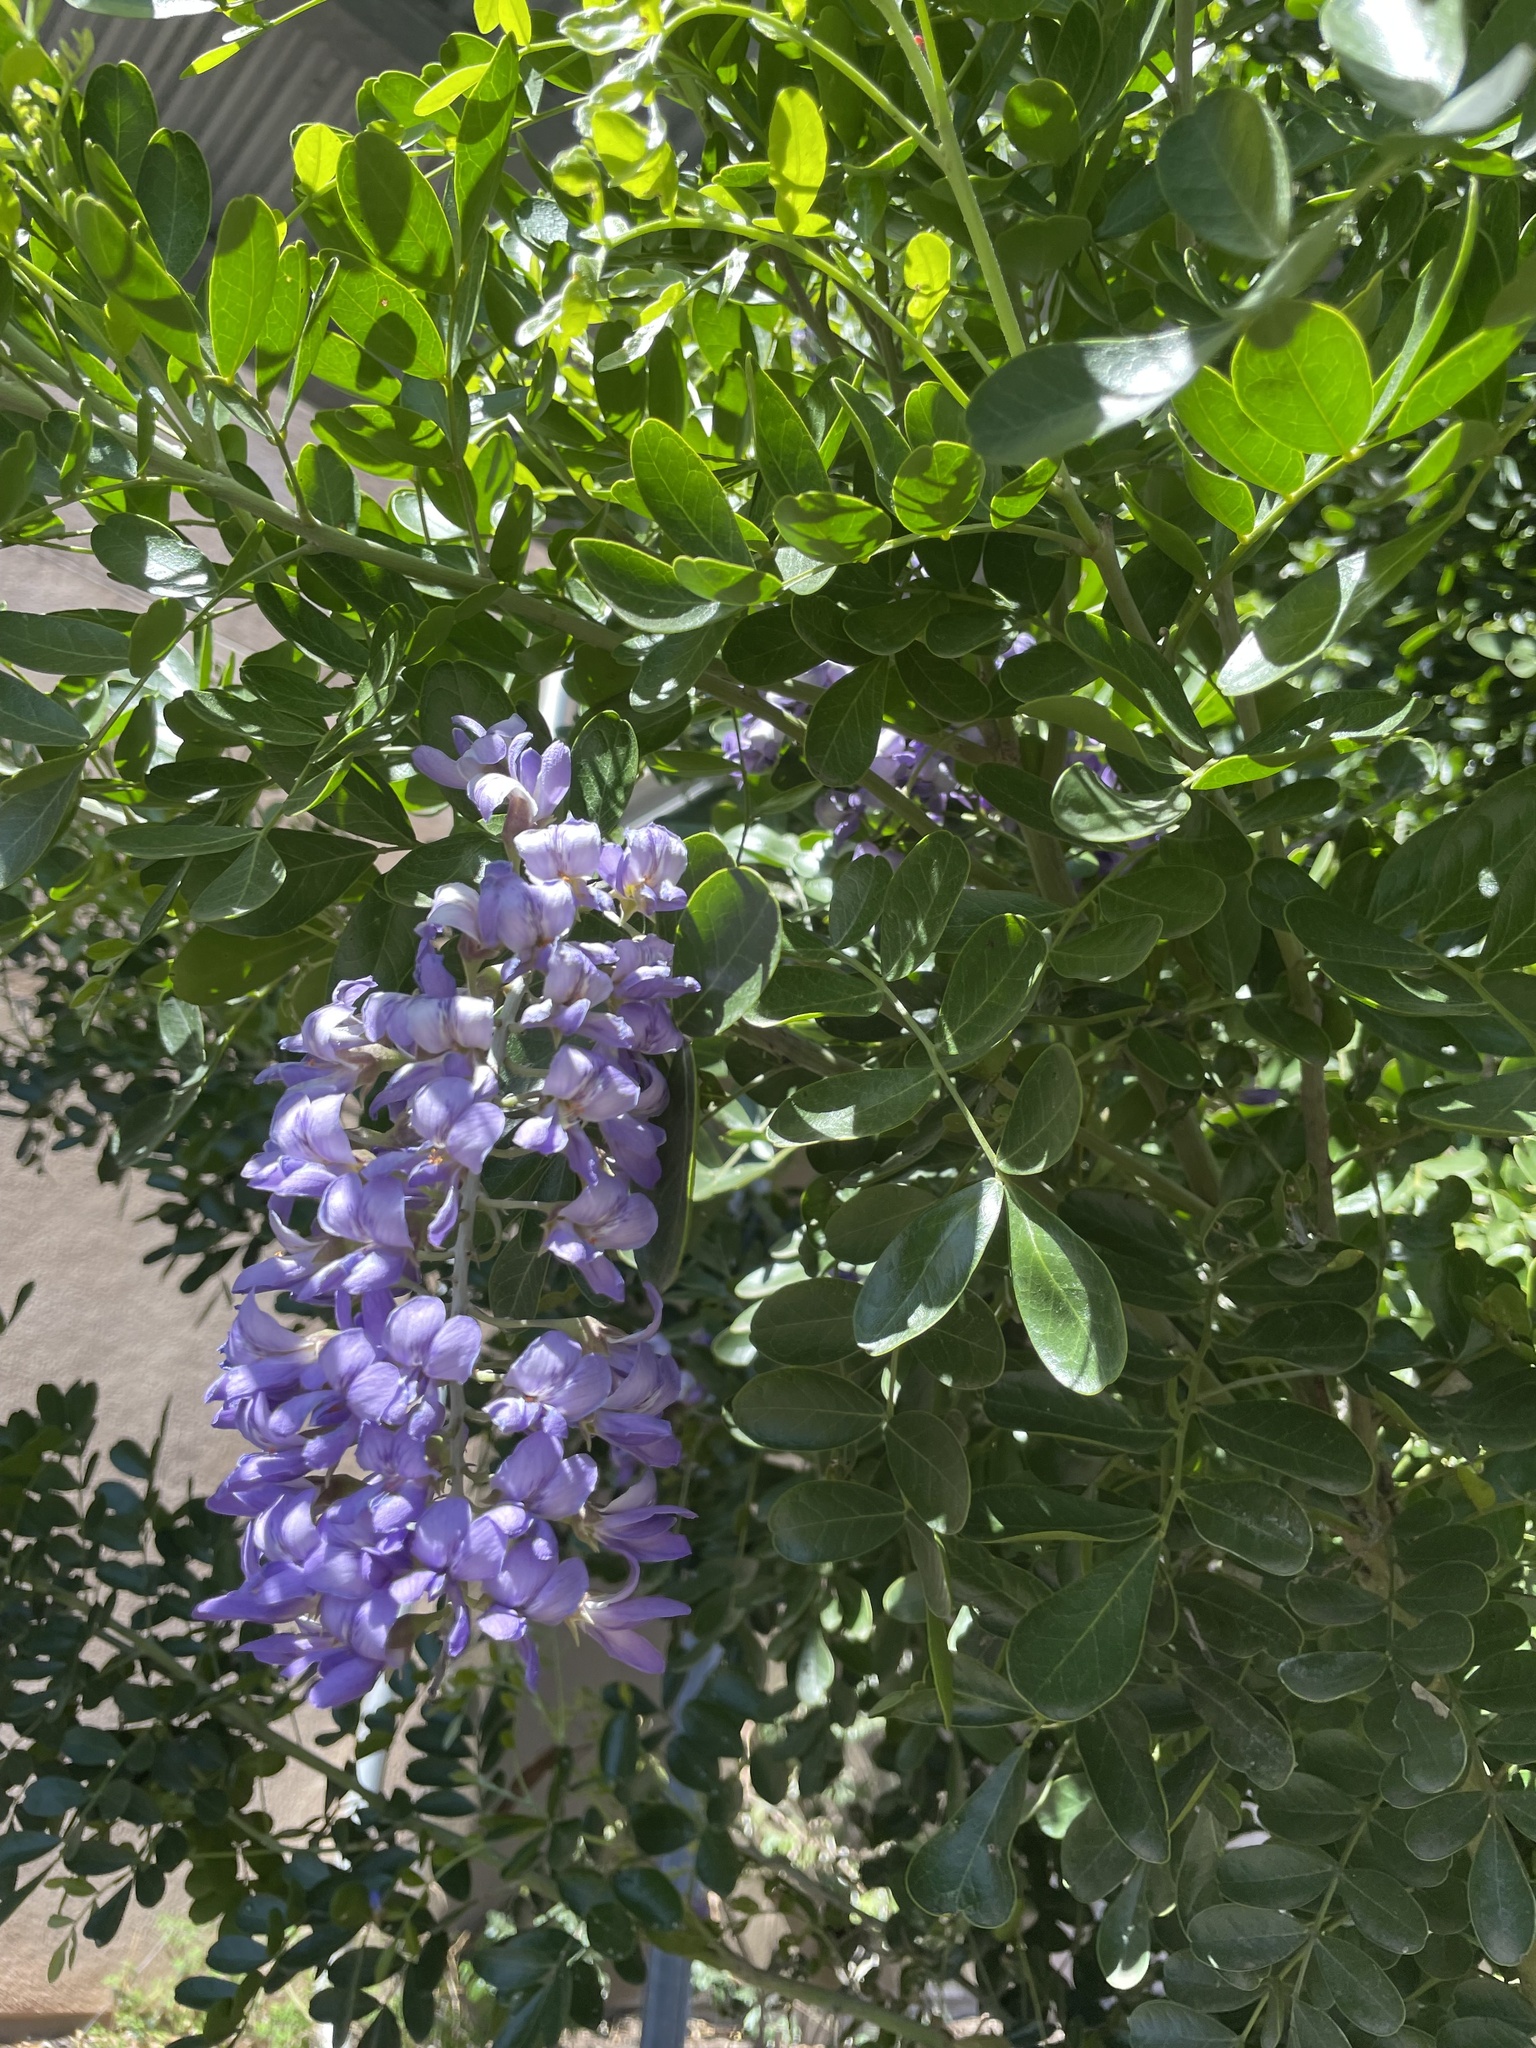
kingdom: Plantae
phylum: Tracheophyta
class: Magnoliopsida
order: Fabales
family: Fabaceae
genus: Dermatophyllum
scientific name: Dermatophyllum secundiflorum
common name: Texas-mountain-laurel
